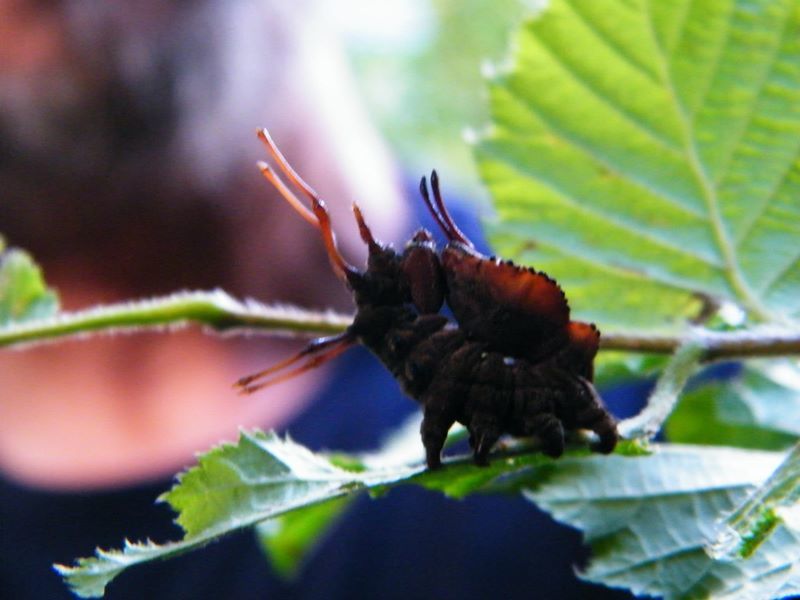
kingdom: Animalia
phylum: Arthropoda
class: Insecta
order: Lepidoptera
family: Notodontidae
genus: Stauropus
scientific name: Stauropus fagi
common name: Lobster moth
